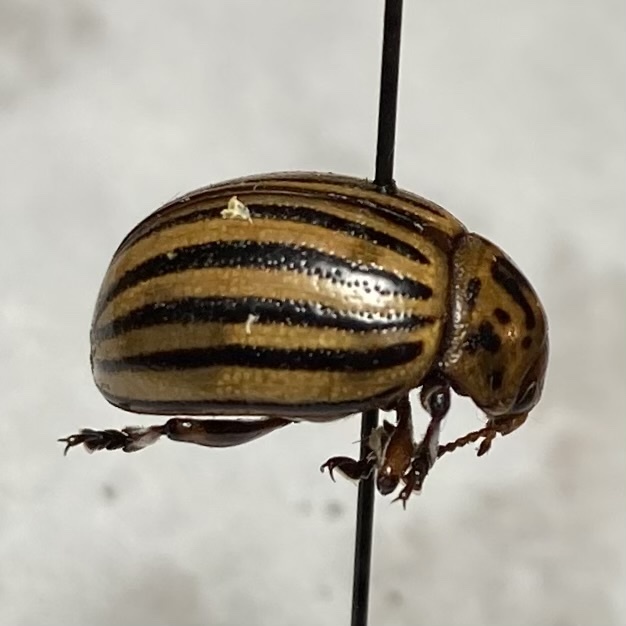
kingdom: Animalia
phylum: Arthropoda
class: Insecta
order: Coleoptera
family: Chrysomelidae
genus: Leptinotarsa
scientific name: Leptinotarsa decemlineata
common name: Colorado potato beetle
